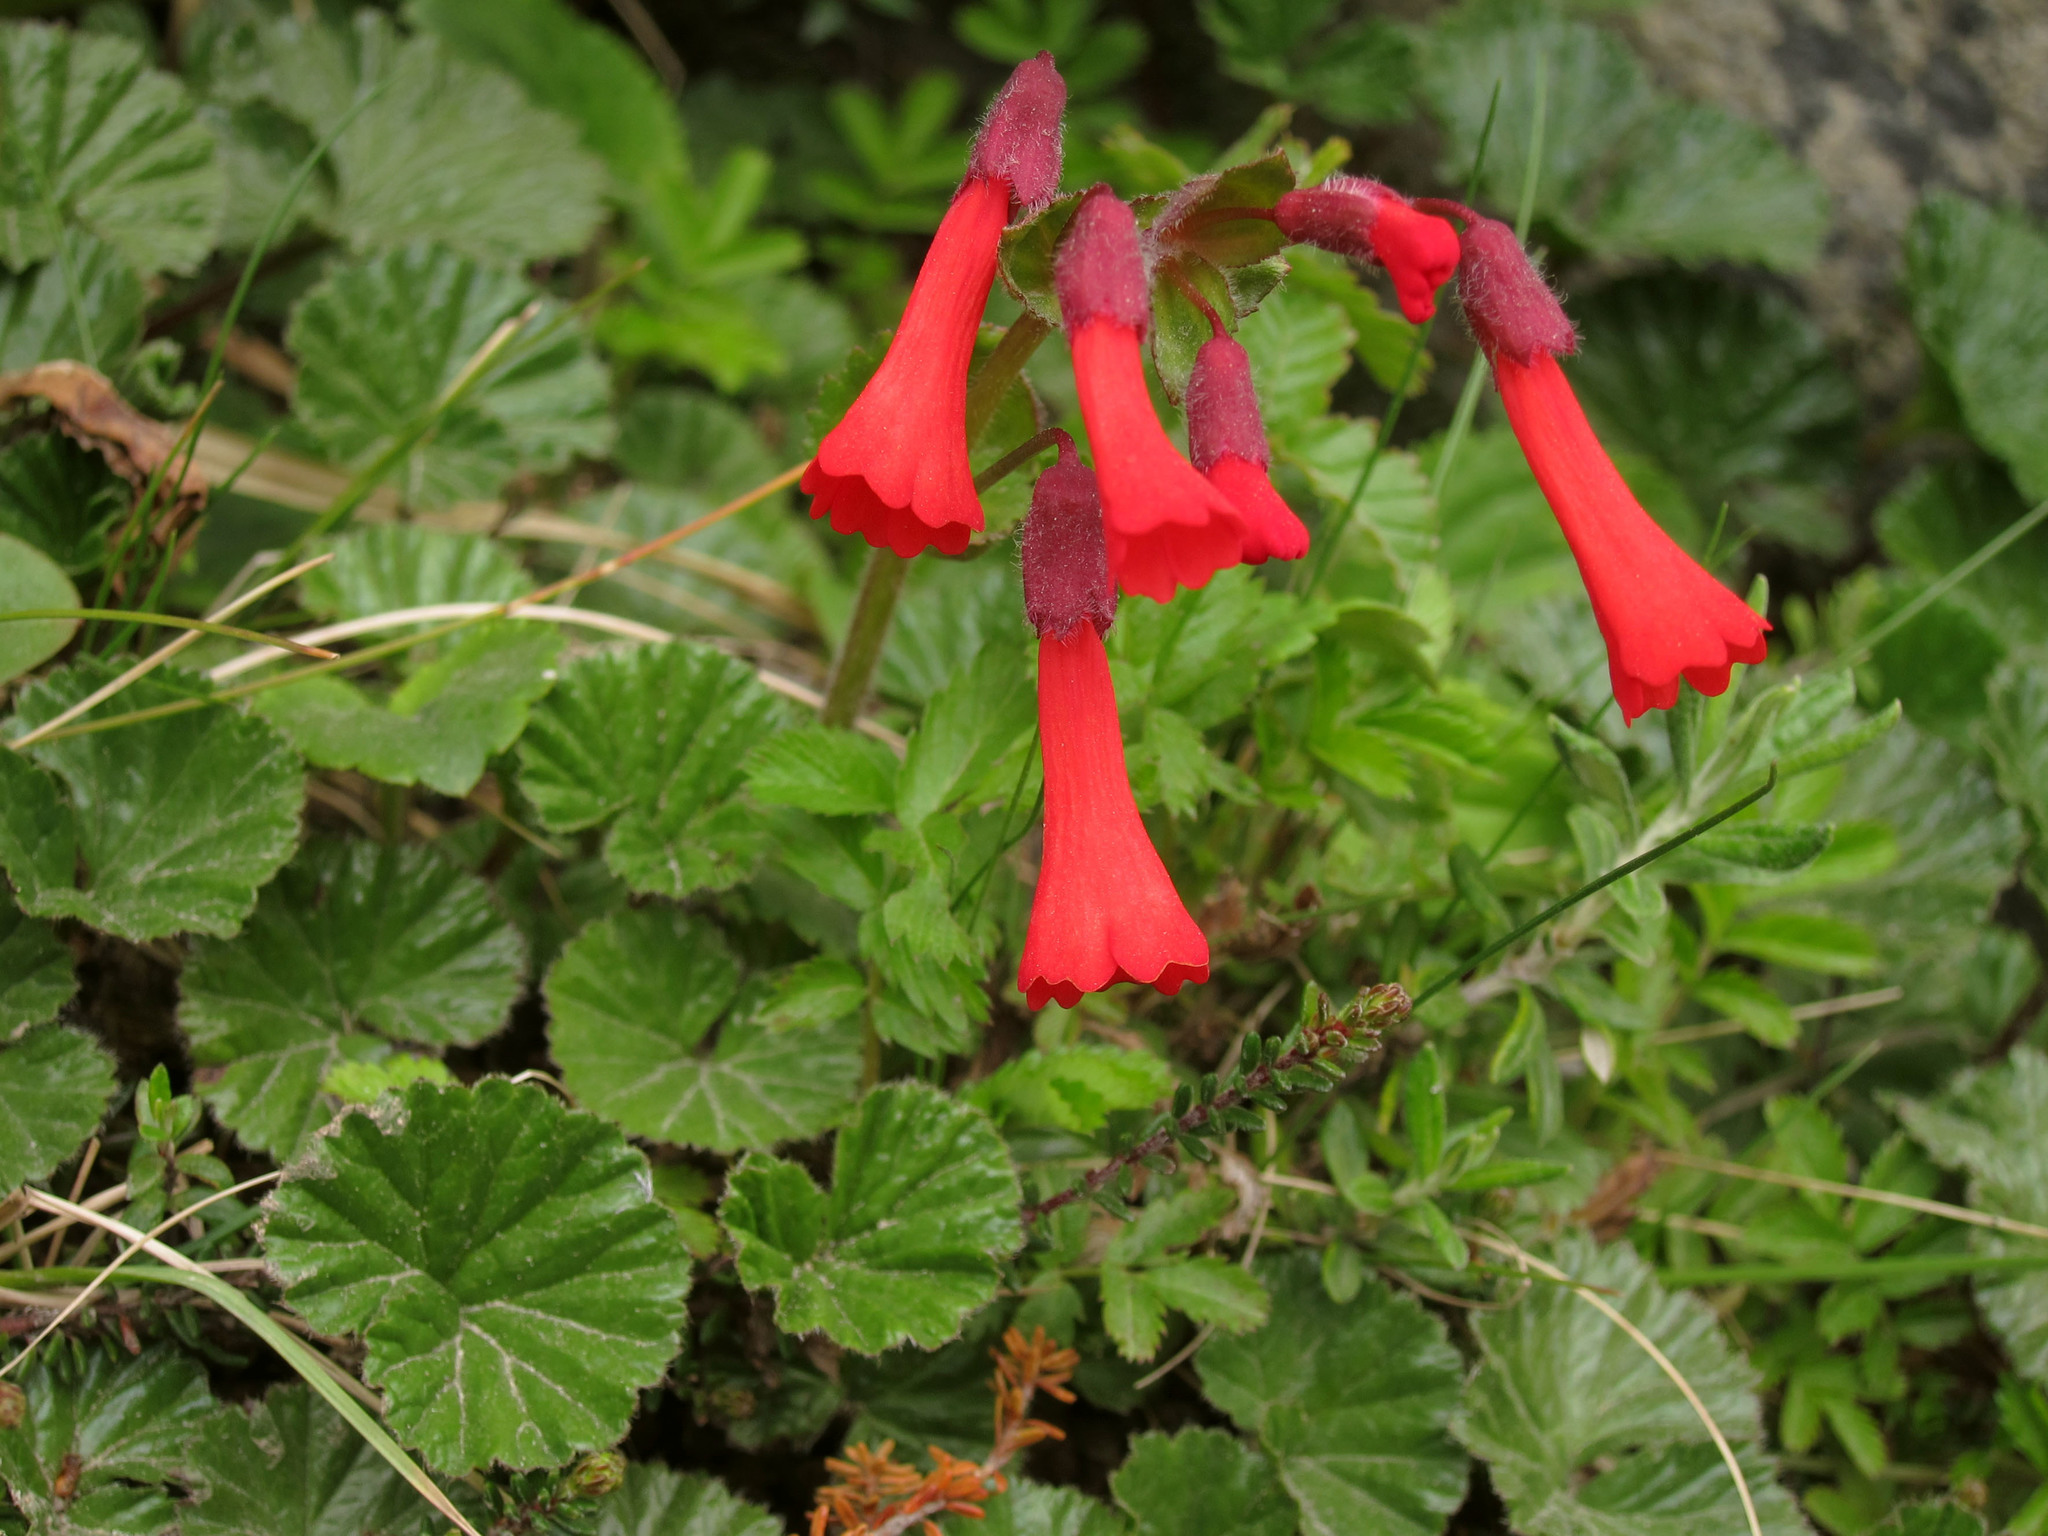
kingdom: Plantae
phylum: Tracheophyta
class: Magnoliopsida
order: Lamiales
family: Plantaginaceae
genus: Ourisia
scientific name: Ourisia ruellioides
